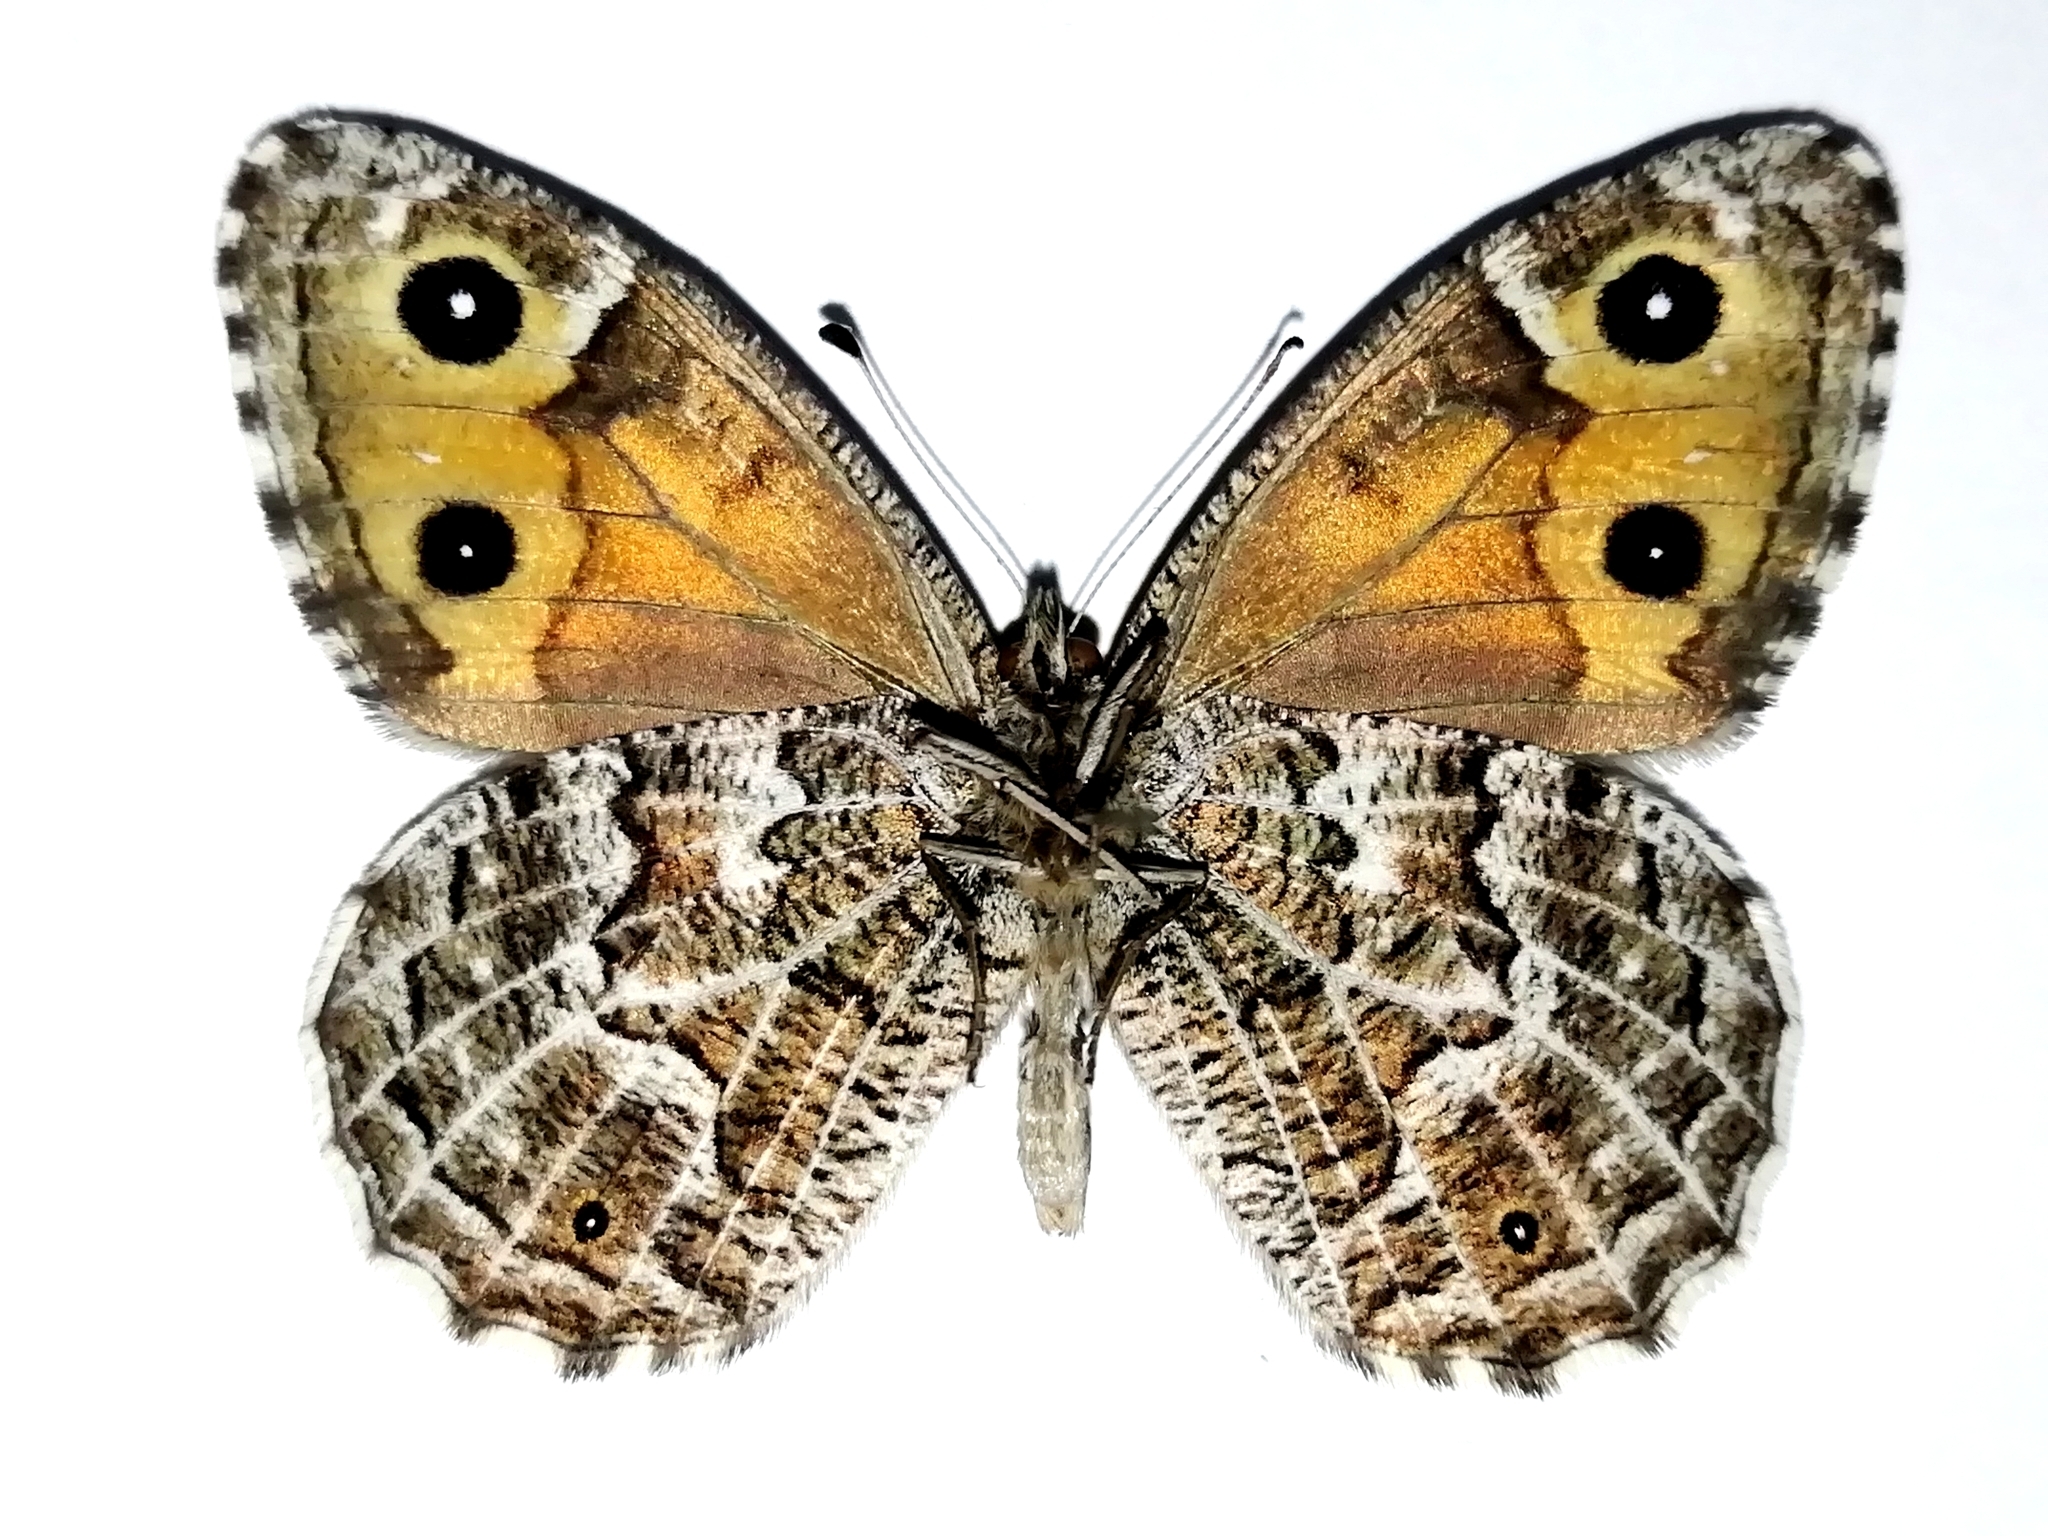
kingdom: Animalia
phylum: Arthropoda
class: Insecta
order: Lepidoptera
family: Nymphalidae
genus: Hipparchia
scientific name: Hipparchia autonoe
